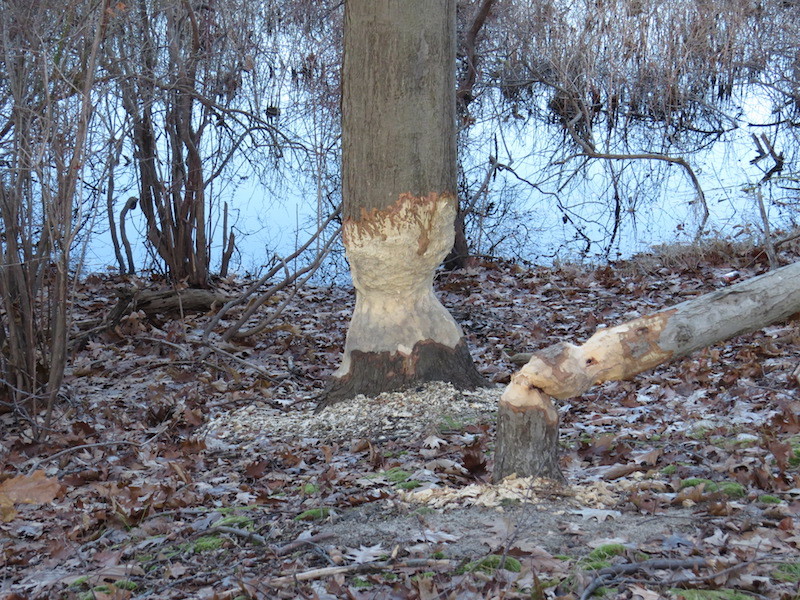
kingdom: Animalia
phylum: Chordata
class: Mammalia
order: Rodentia
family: Castoridae
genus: Castor
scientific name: Castor canadensis
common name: American beaver
